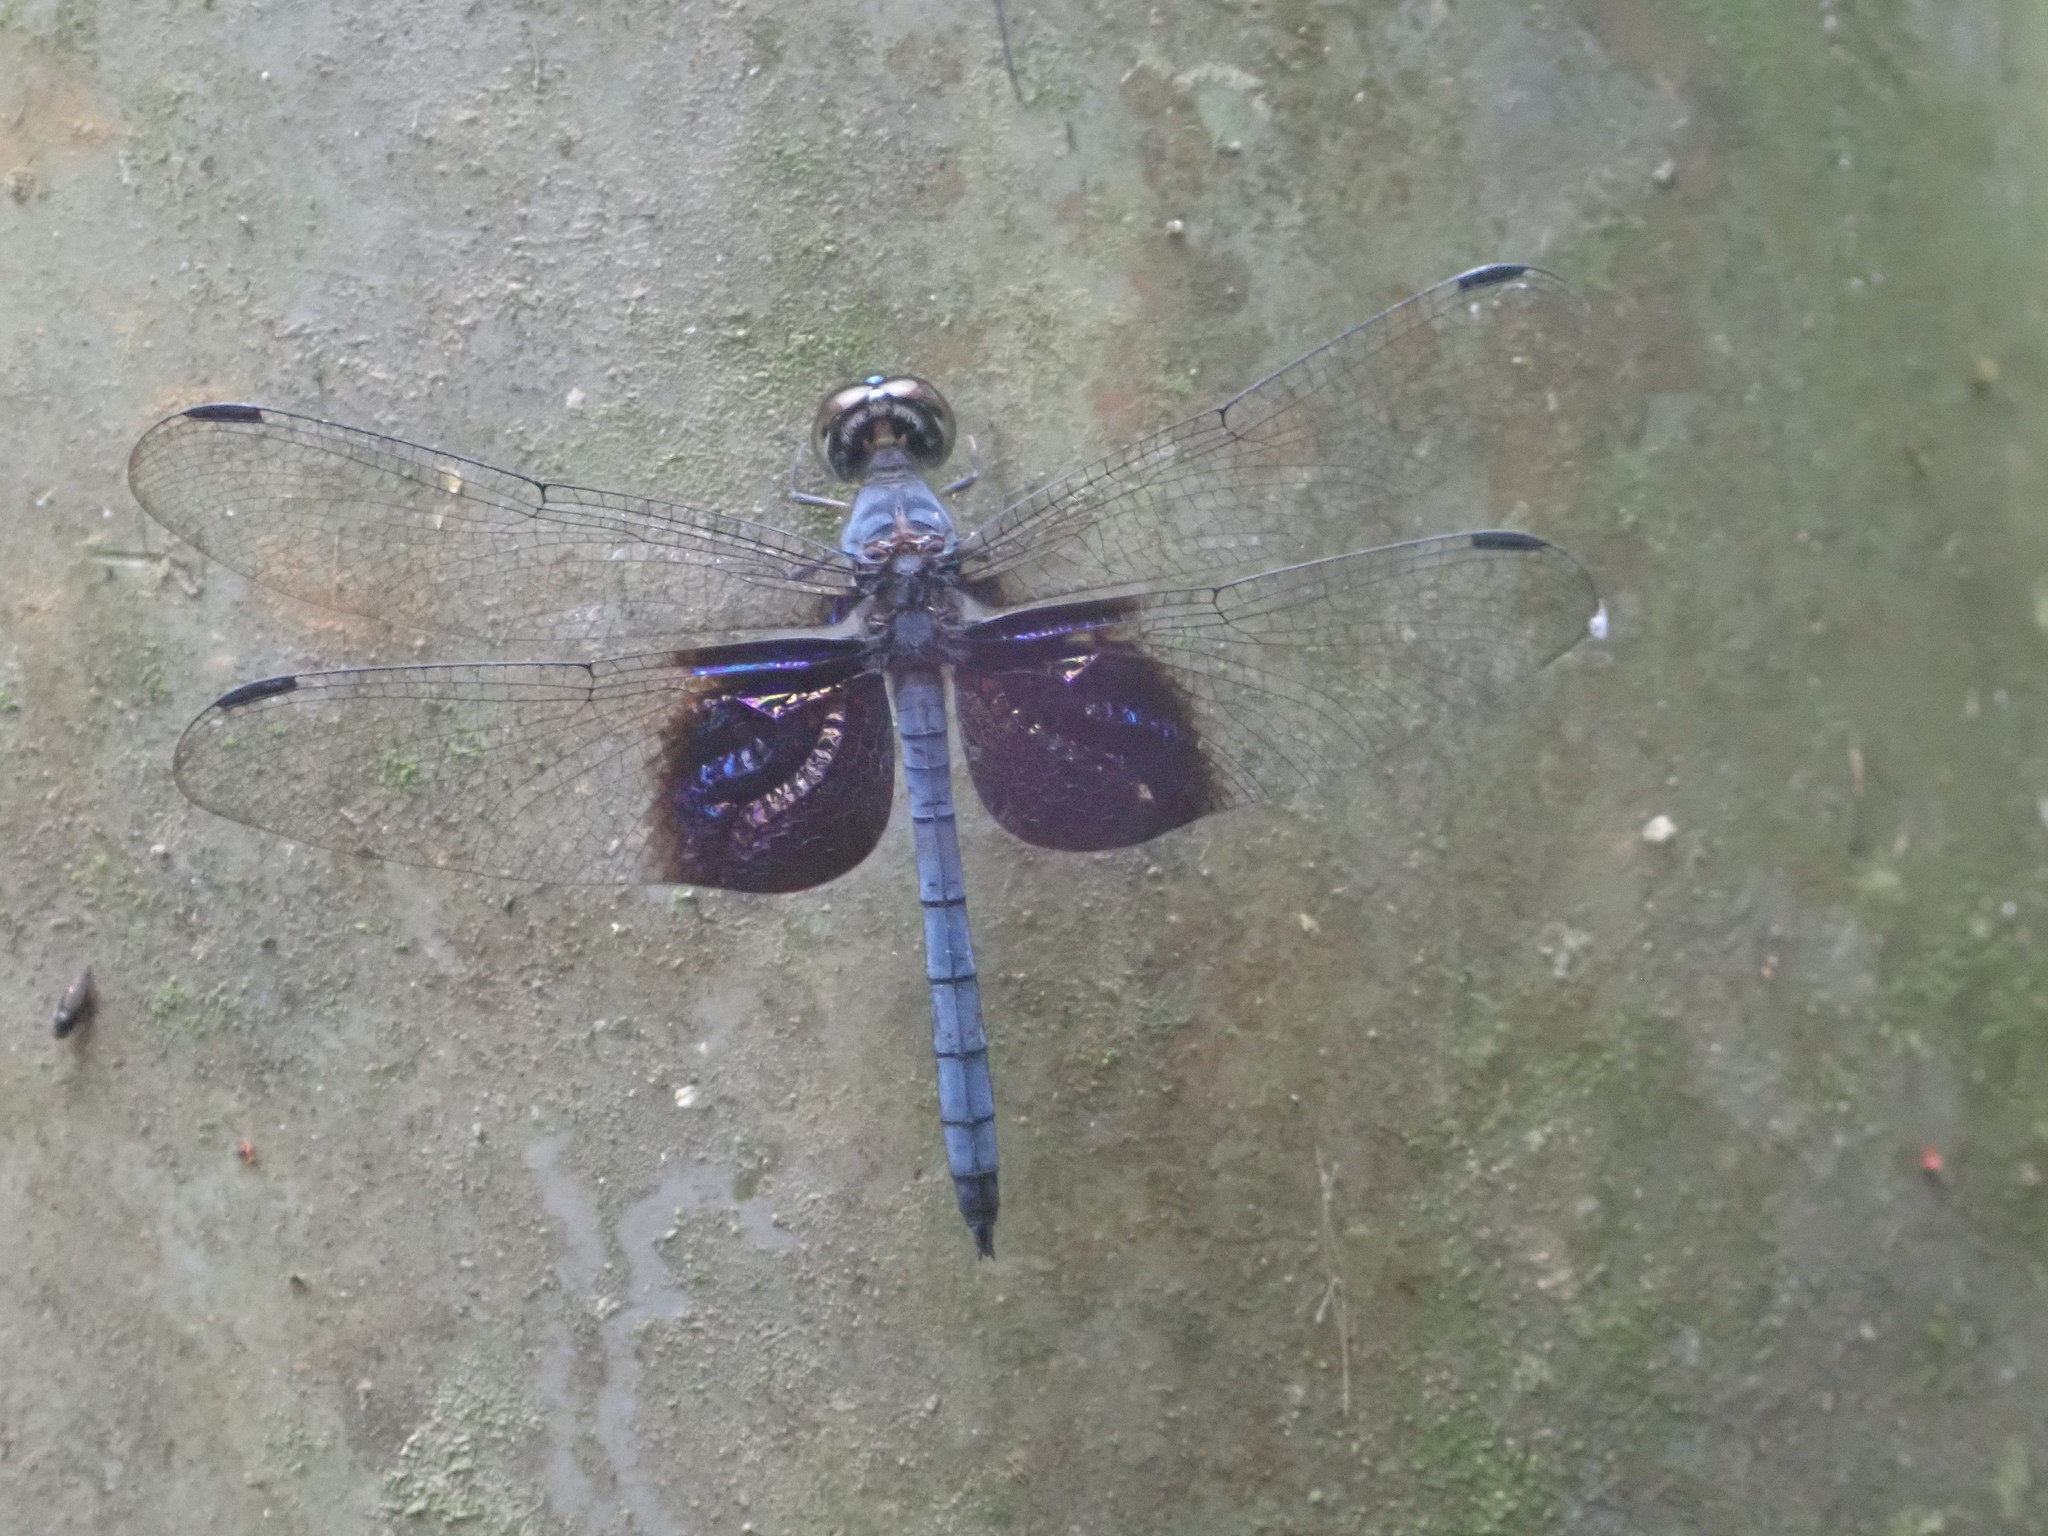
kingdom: Animalia
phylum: Arthropoda
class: Insecta
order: Odonata
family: Libellulidae
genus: Tyriobapta
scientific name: Tyriobapta torrida
